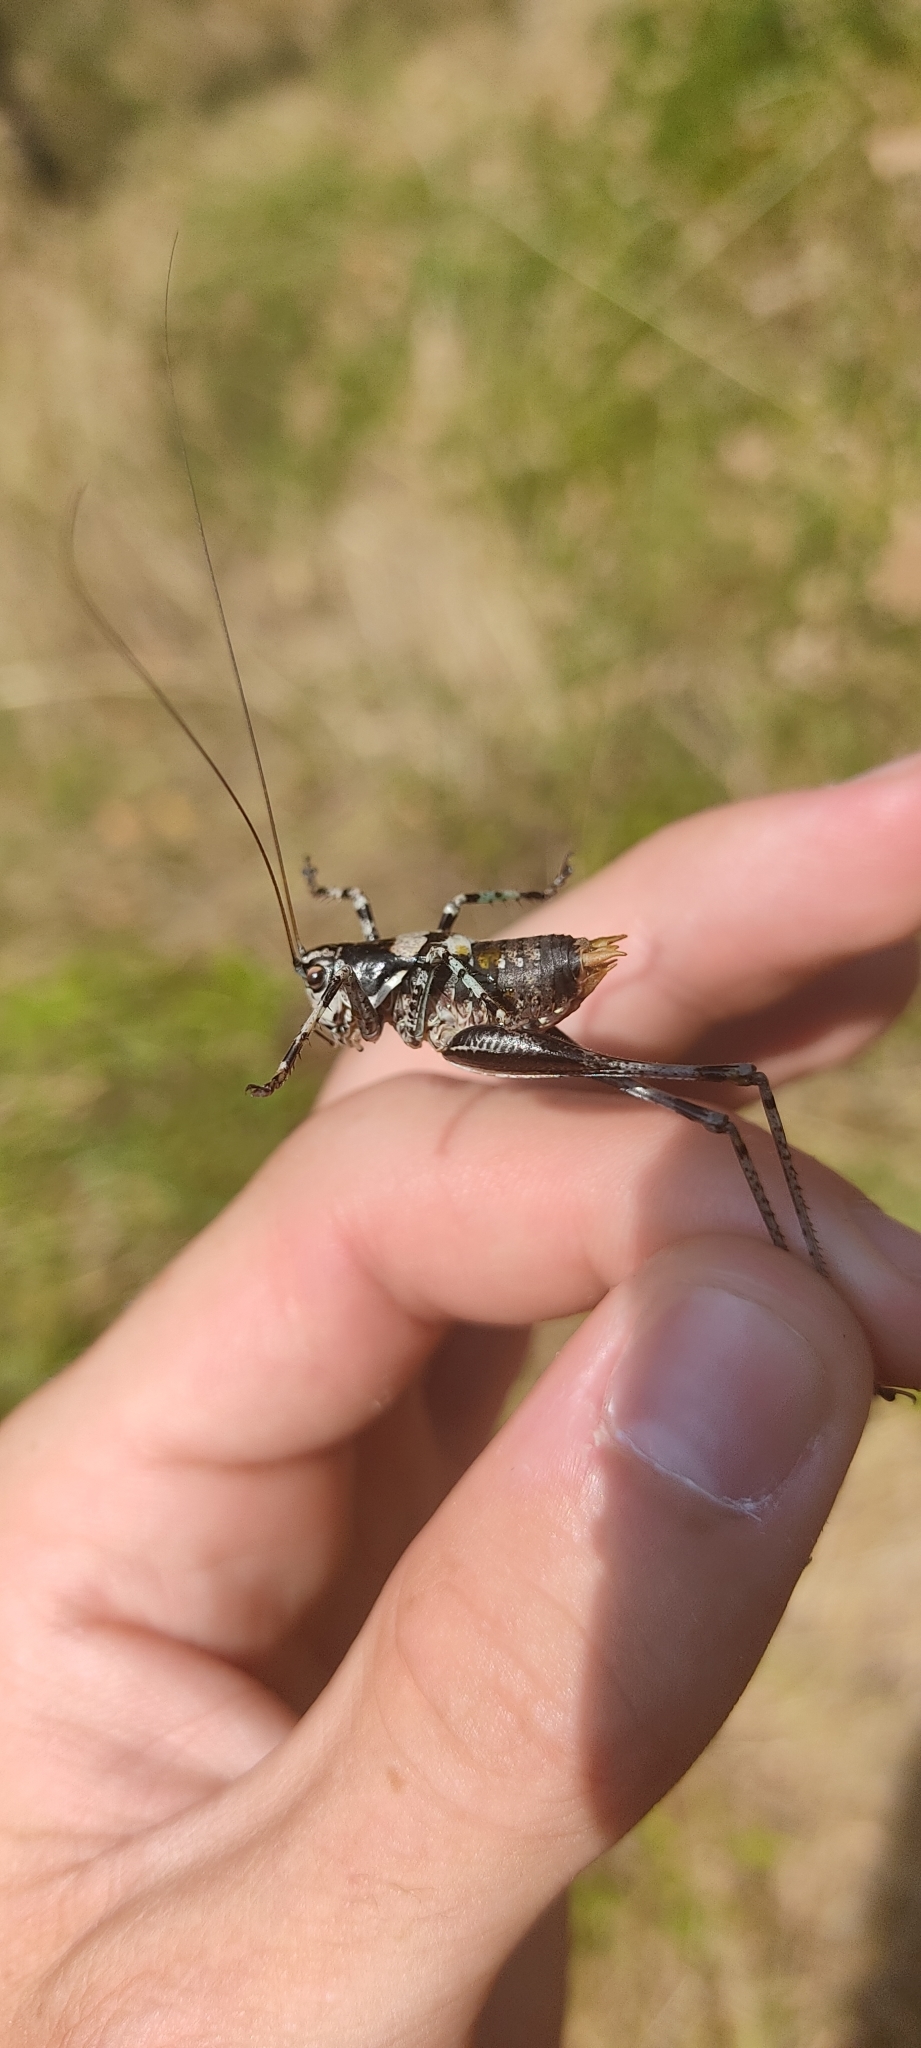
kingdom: Animalia
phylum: Arthropoda
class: Insecta
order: Orthoptera
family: Tettigoniidae
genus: Antaxius
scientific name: Antaxius pedestris
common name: Common mountain bush-cricket
